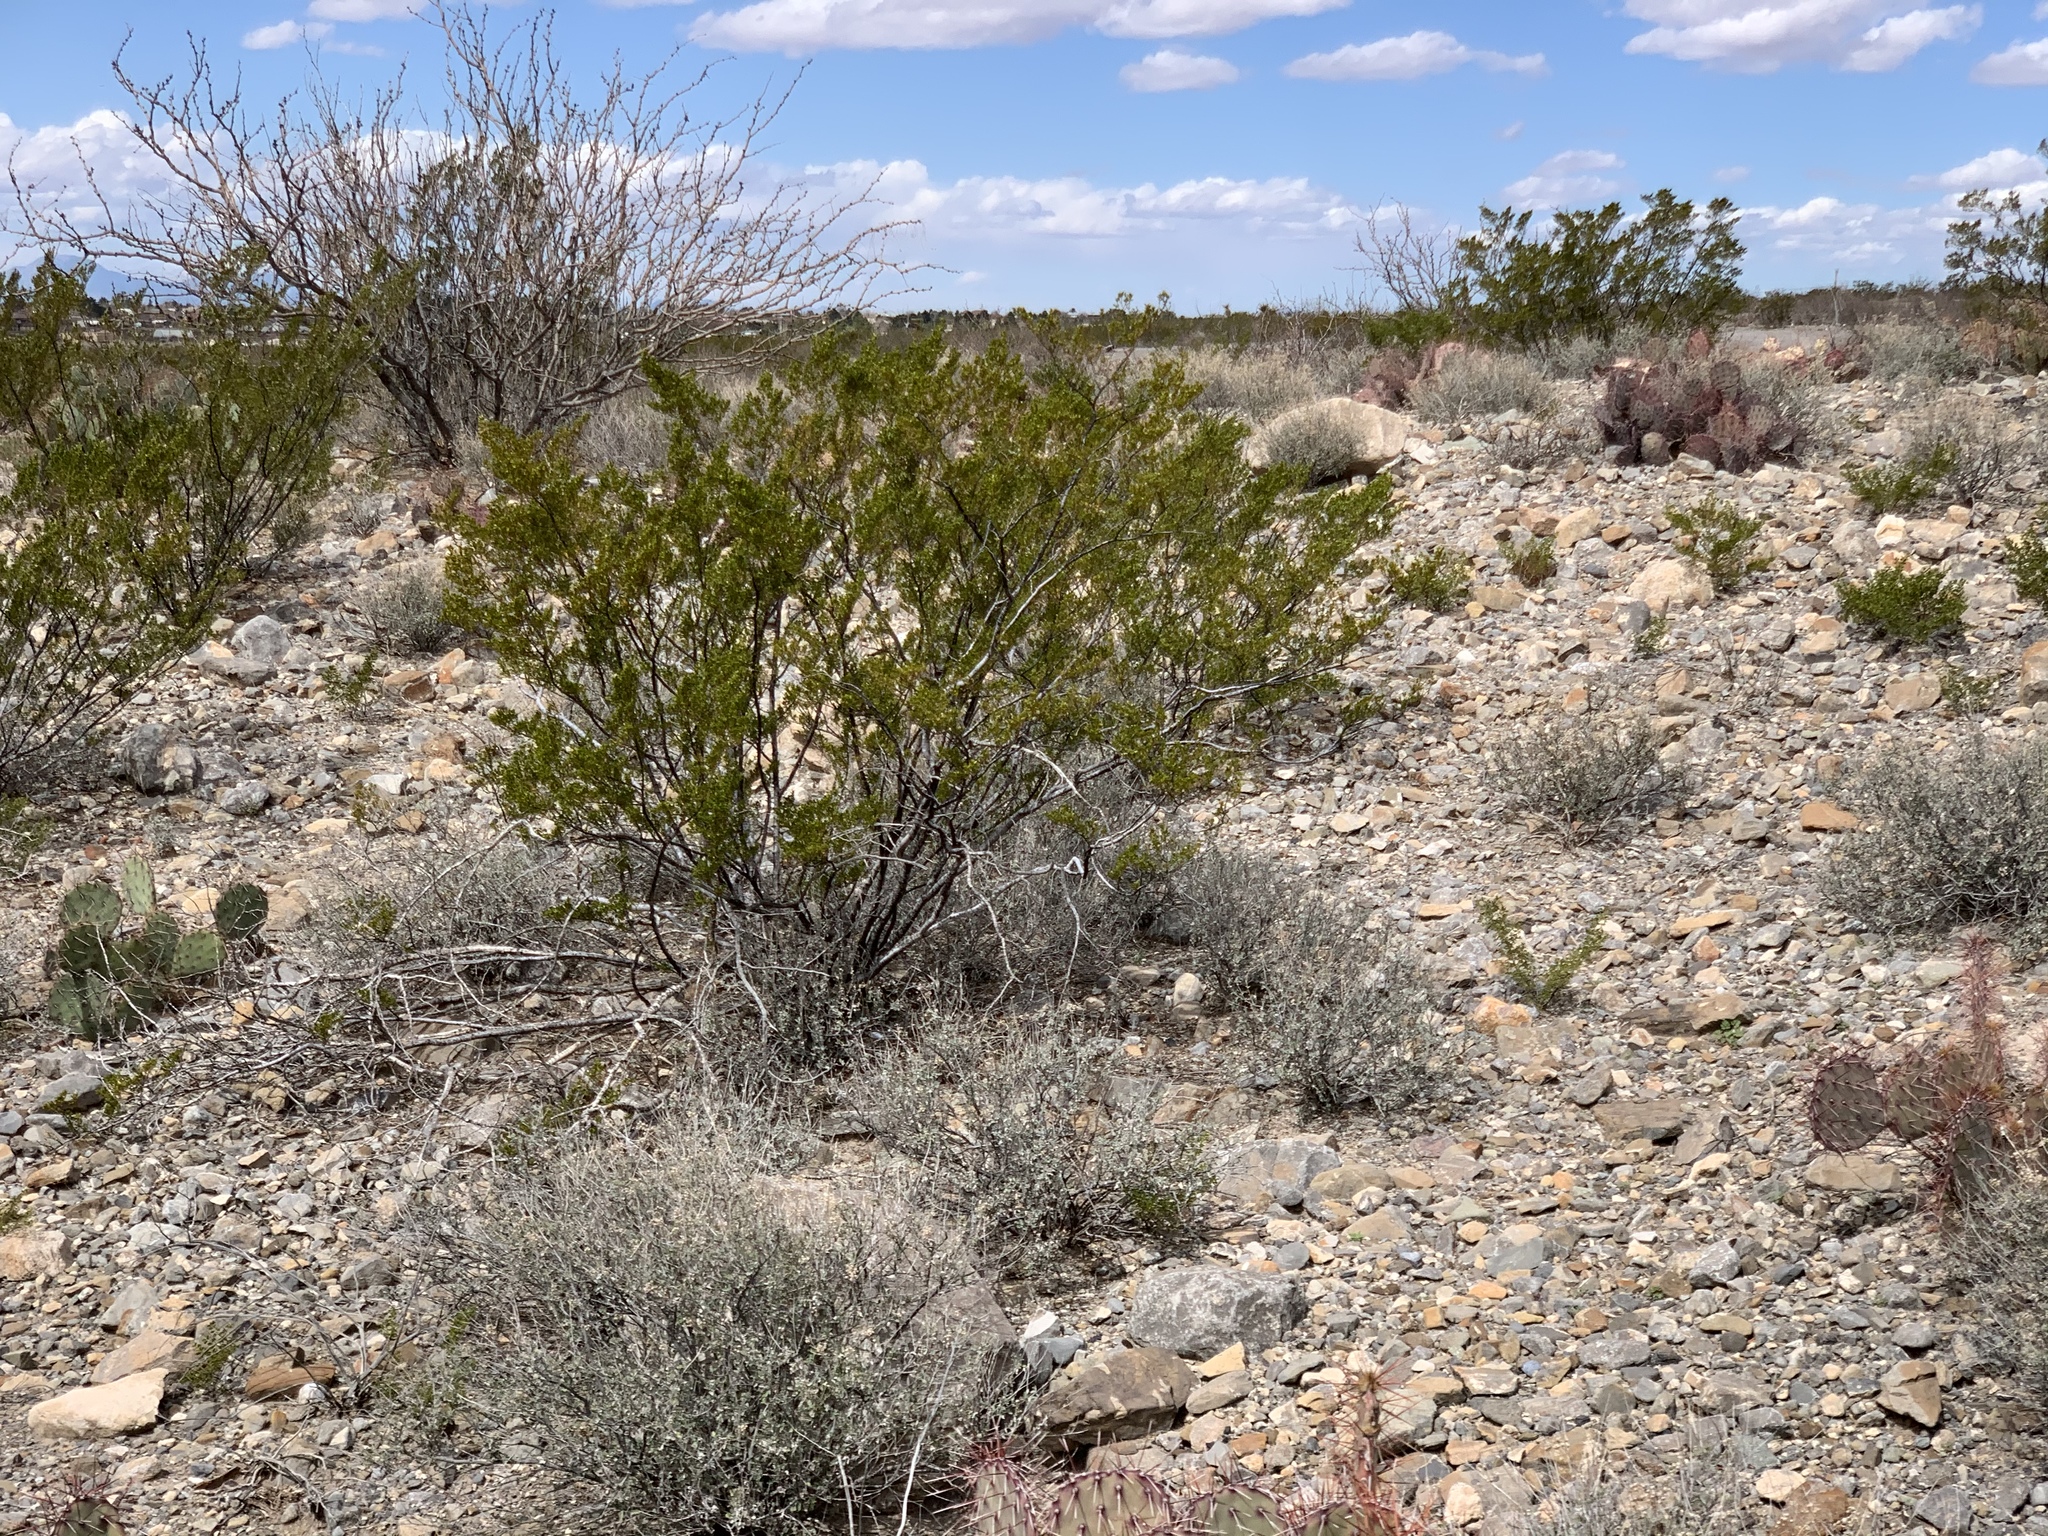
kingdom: Plantae
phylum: Tracheophyta
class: Magnoliopsida
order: Zygophyllales
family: Zygophyllaceae
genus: Larrea
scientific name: Larrea tridentata
